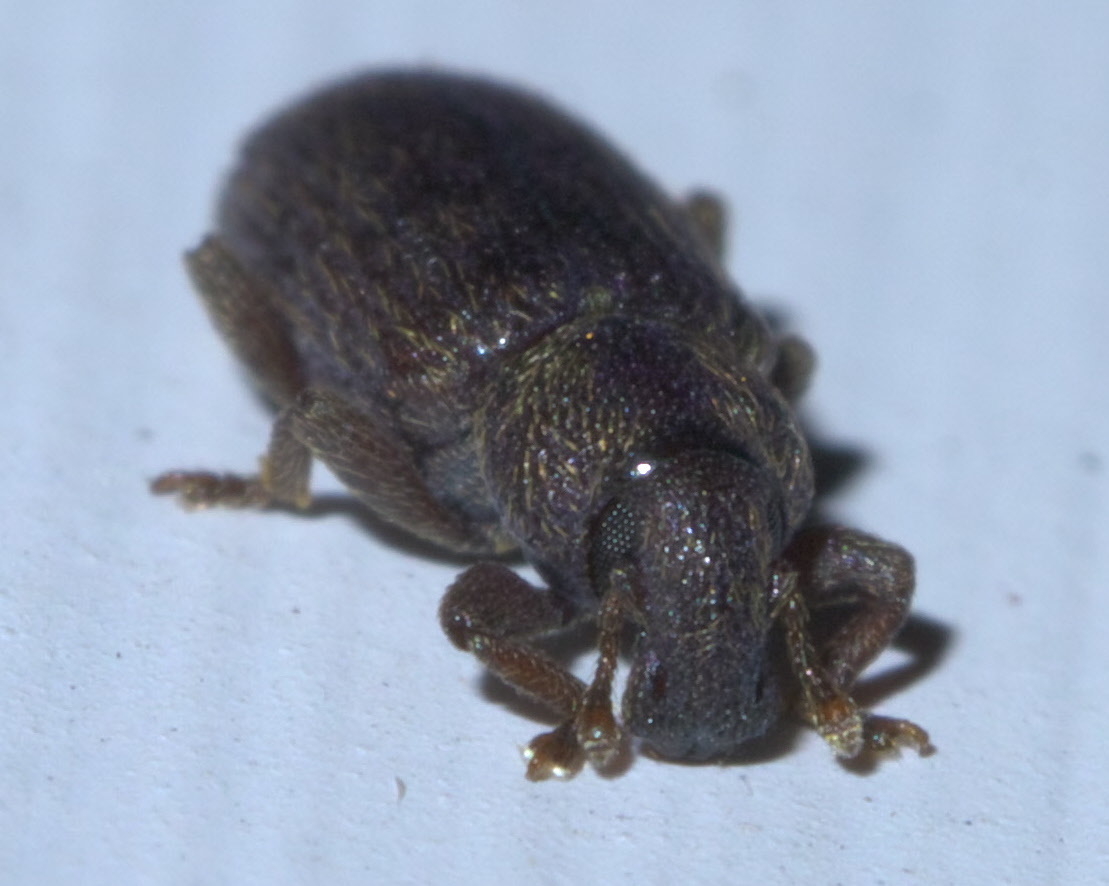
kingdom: Animalia
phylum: Arthropoda
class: Insecta
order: Coleoptera
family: Curculionidae
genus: Hormops
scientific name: Hormops abducens
